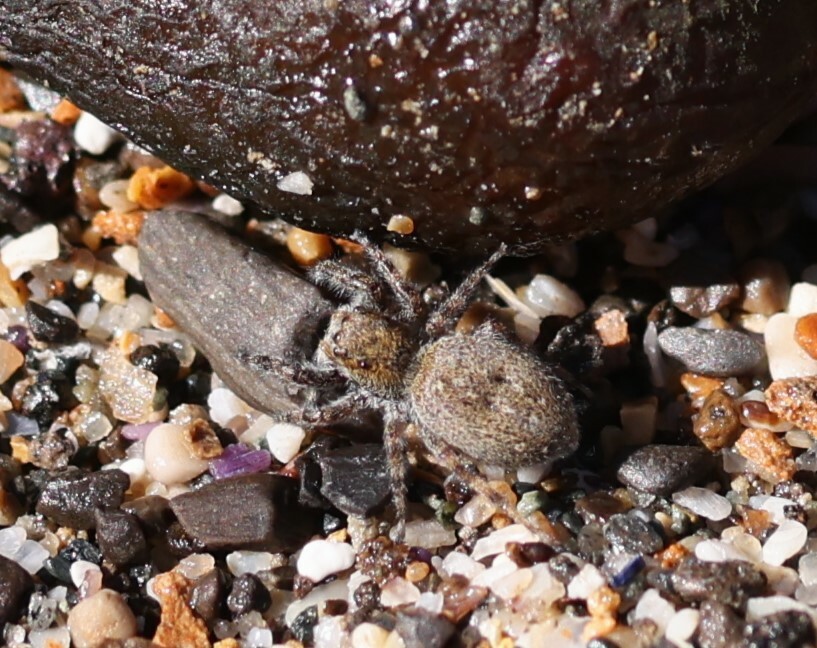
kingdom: Animalia
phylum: Arthropoda
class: Arachnida
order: Araneae
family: Salticidae
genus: Terralonus
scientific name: Terralonus californicus
